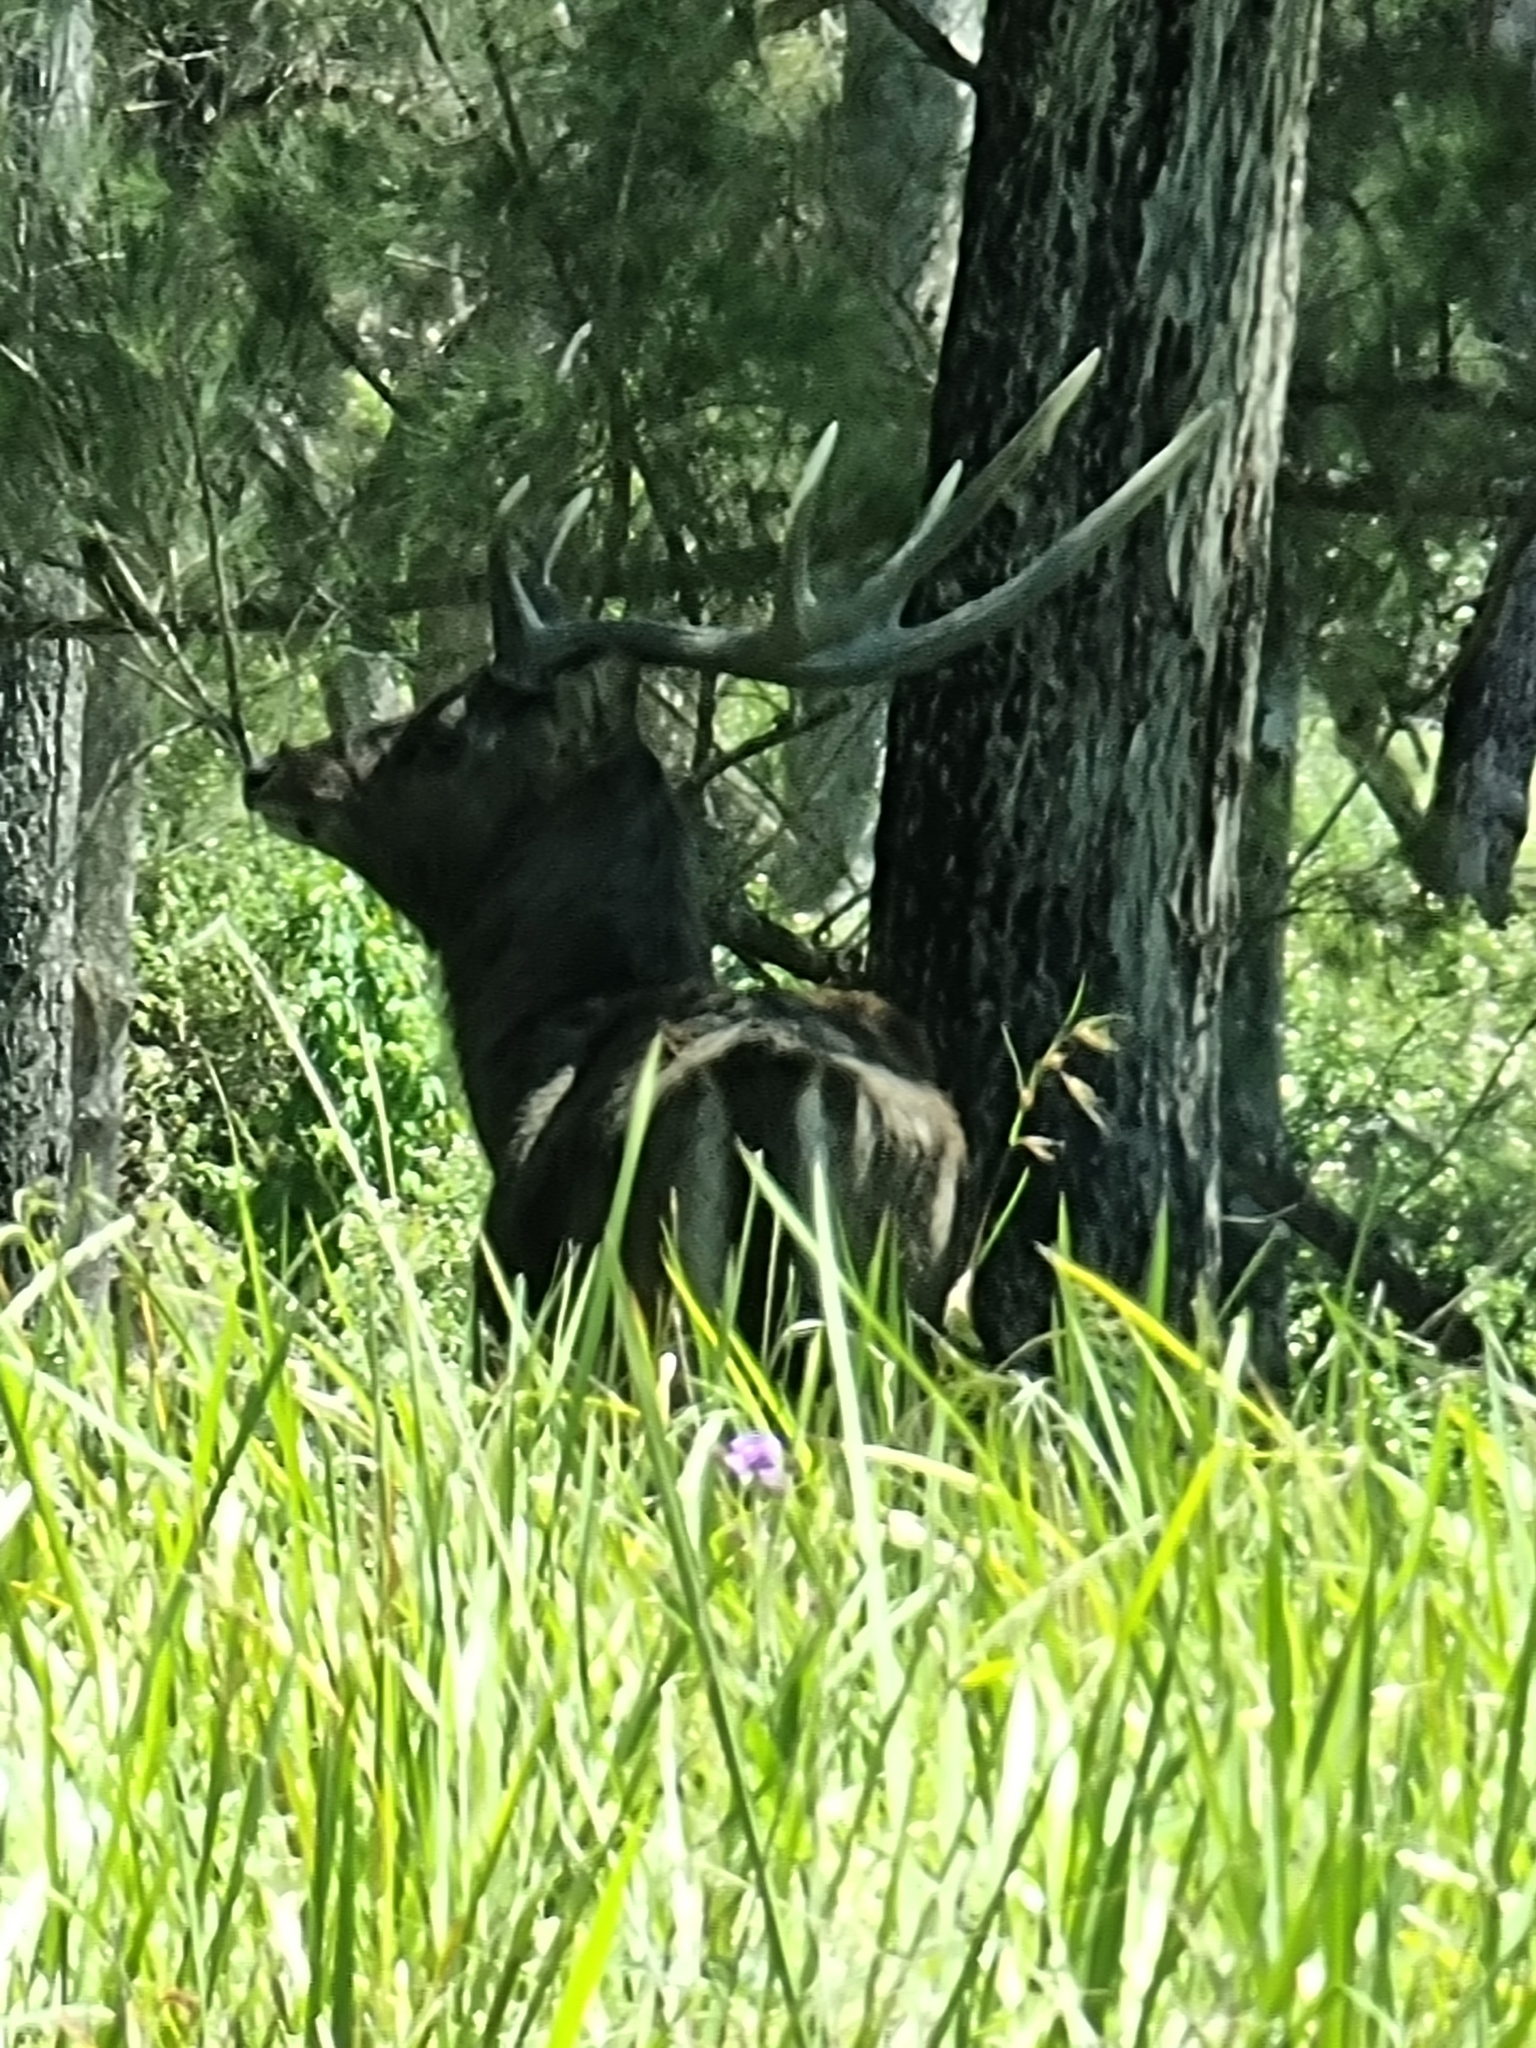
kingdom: Animalia
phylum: Chordata
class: Mammalia
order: Artiodactyla
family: Cervidae
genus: Rusa
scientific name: Rusa timorensis
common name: Javan rusa
